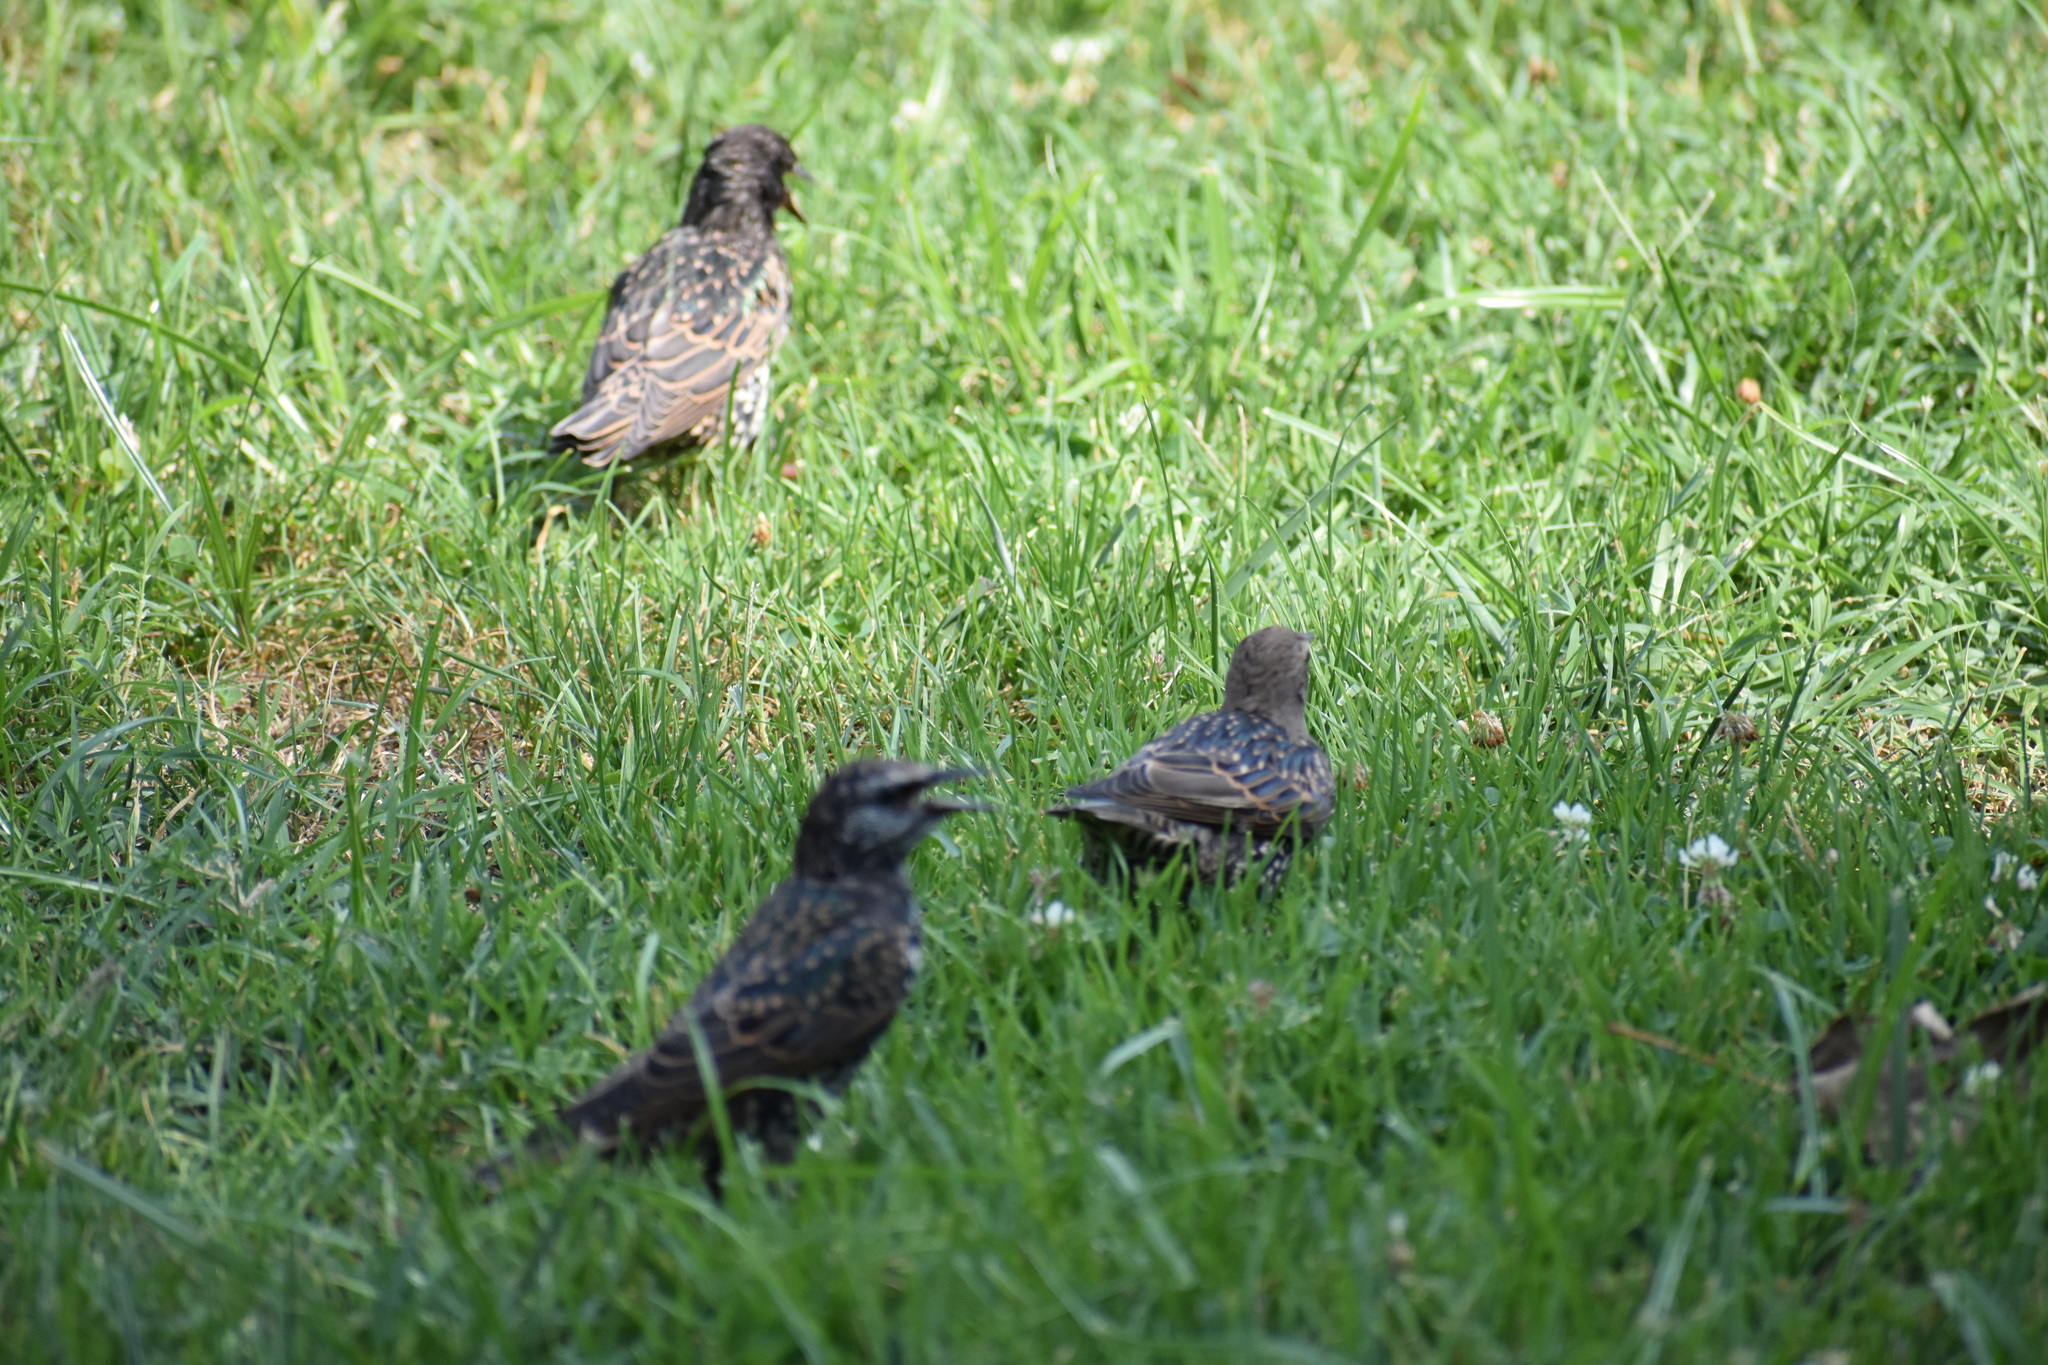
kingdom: Animalia
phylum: Chordata
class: Aves
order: Passeriformes
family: Sturnidae
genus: Sturnus
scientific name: Sturnus vulgaris
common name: Common starling
